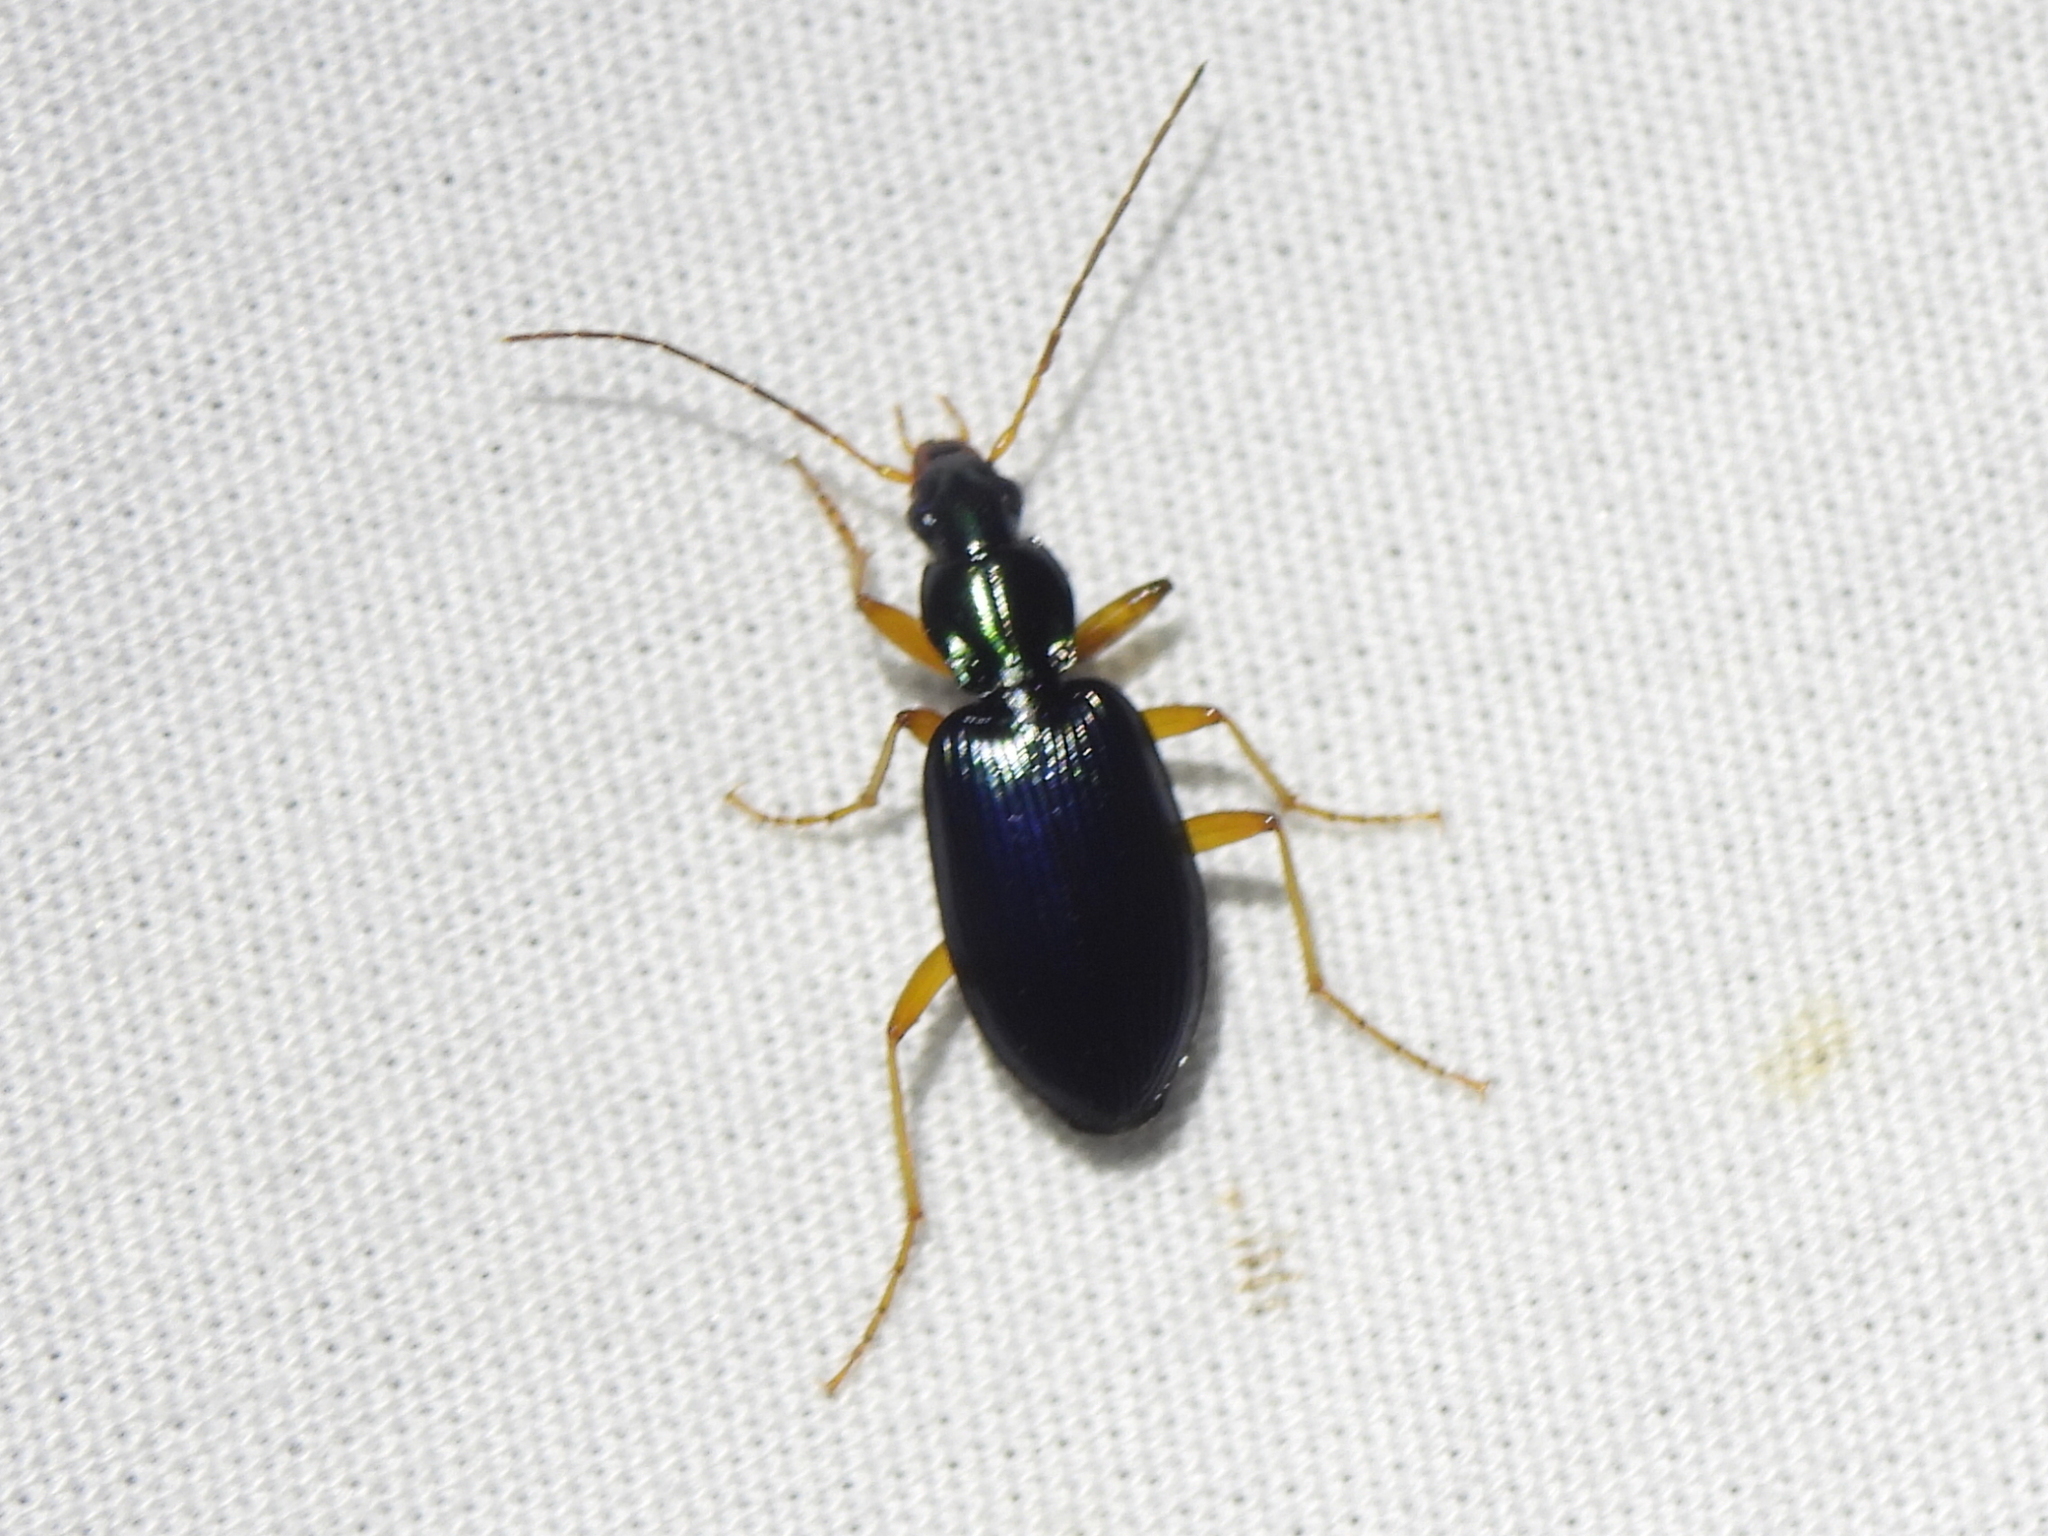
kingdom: Animalia
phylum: Arthropoda
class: Insecta
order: Coleoptera
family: Carabidae
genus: Agonum
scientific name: Agonum extensicolle
